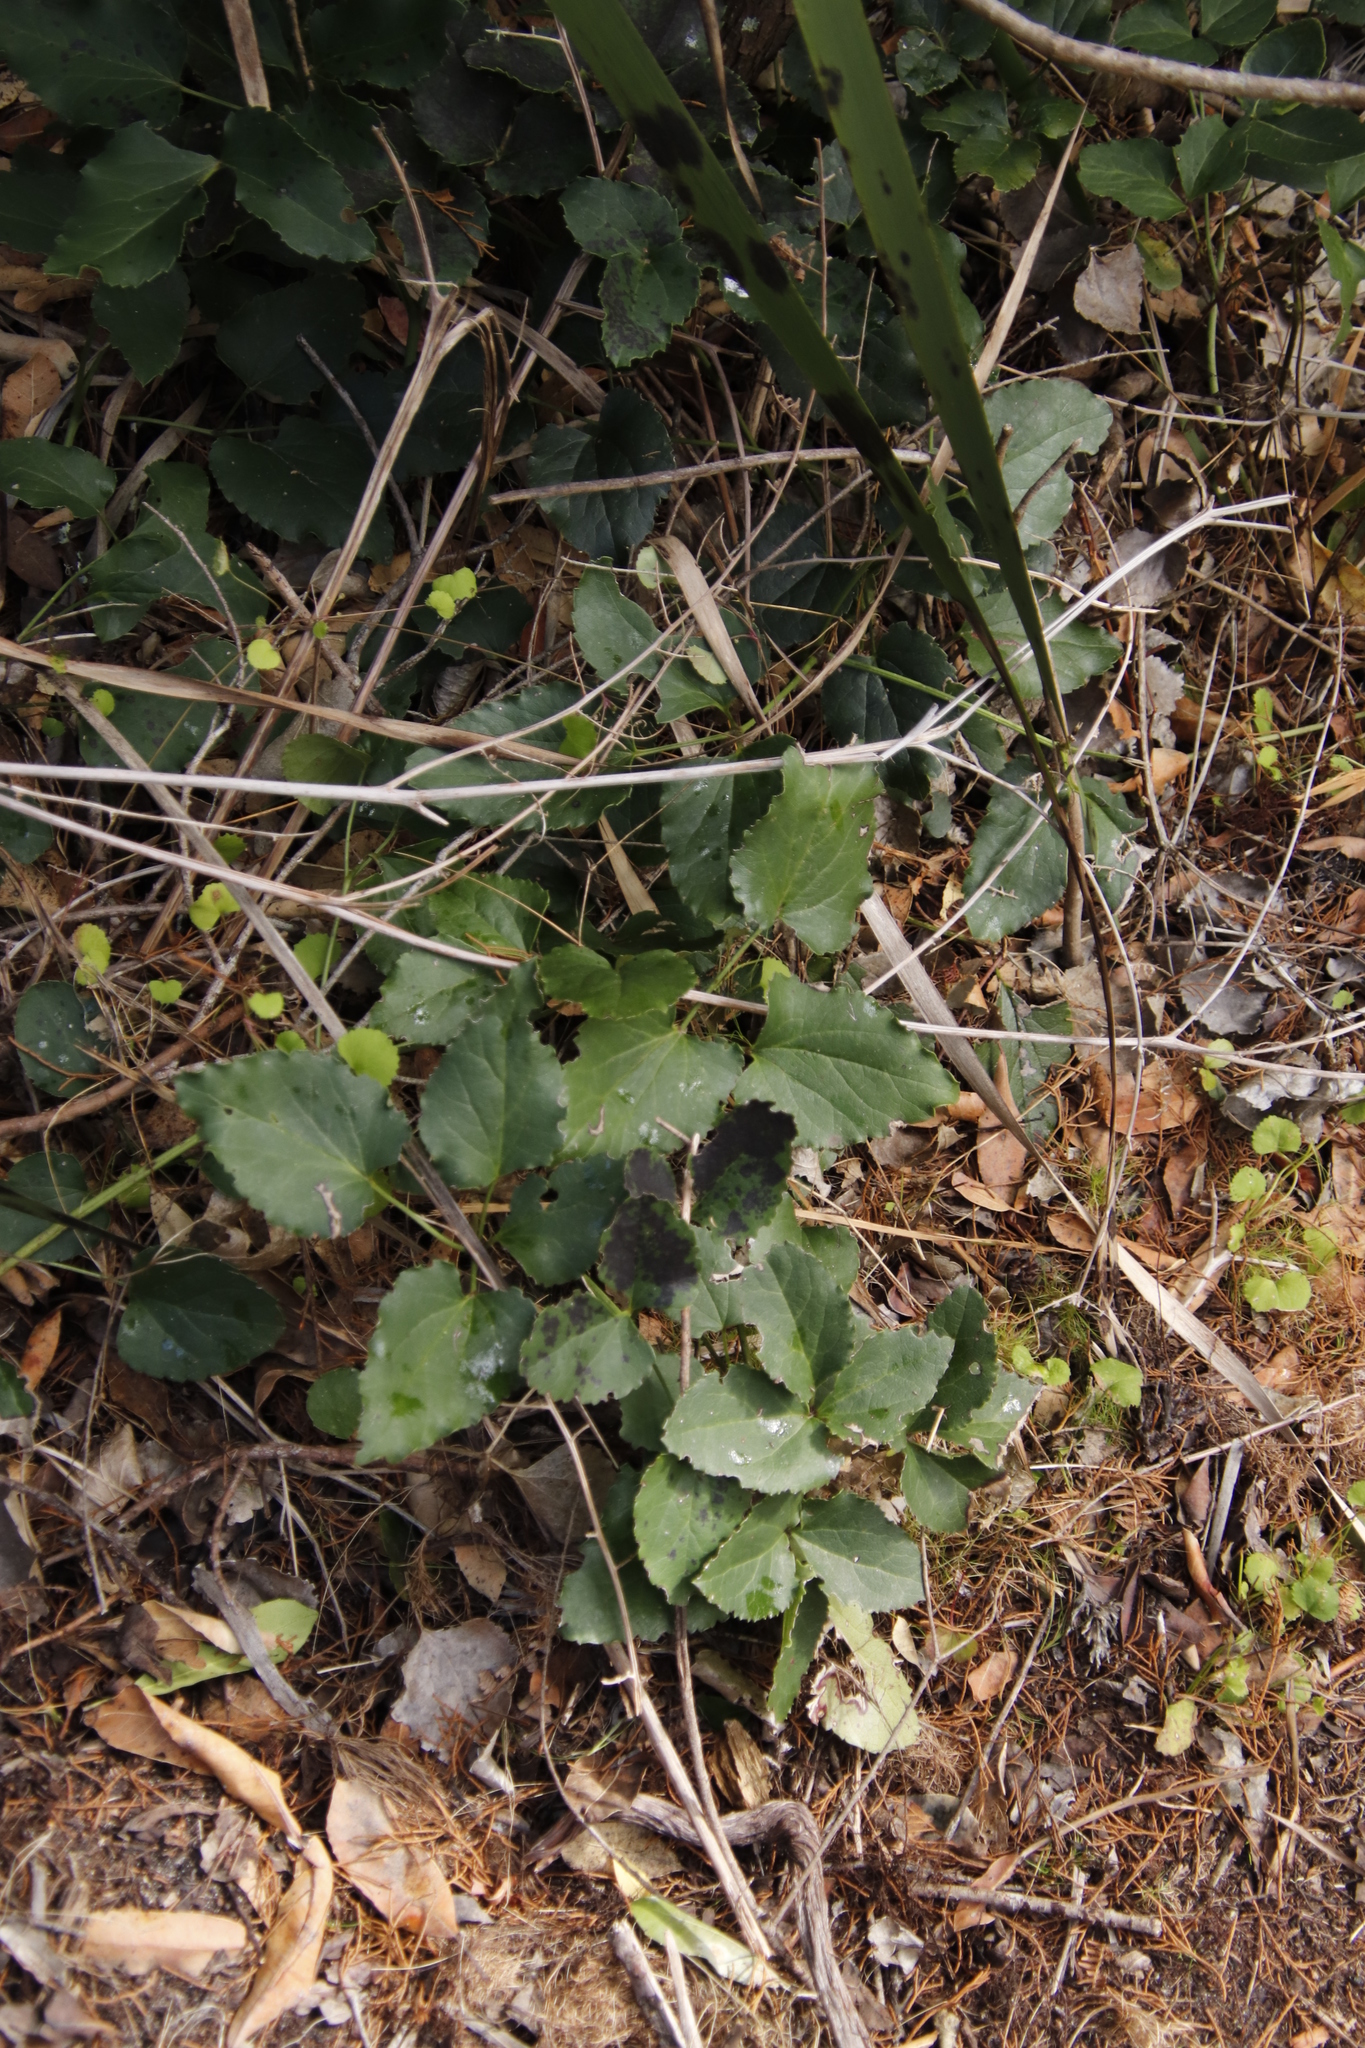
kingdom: Plantae
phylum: Tracheophyta
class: Magnoliopsida
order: Ranunculales
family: Ranunculaceae
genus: Knowltonia
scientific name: Knowltonia vesicatoria
